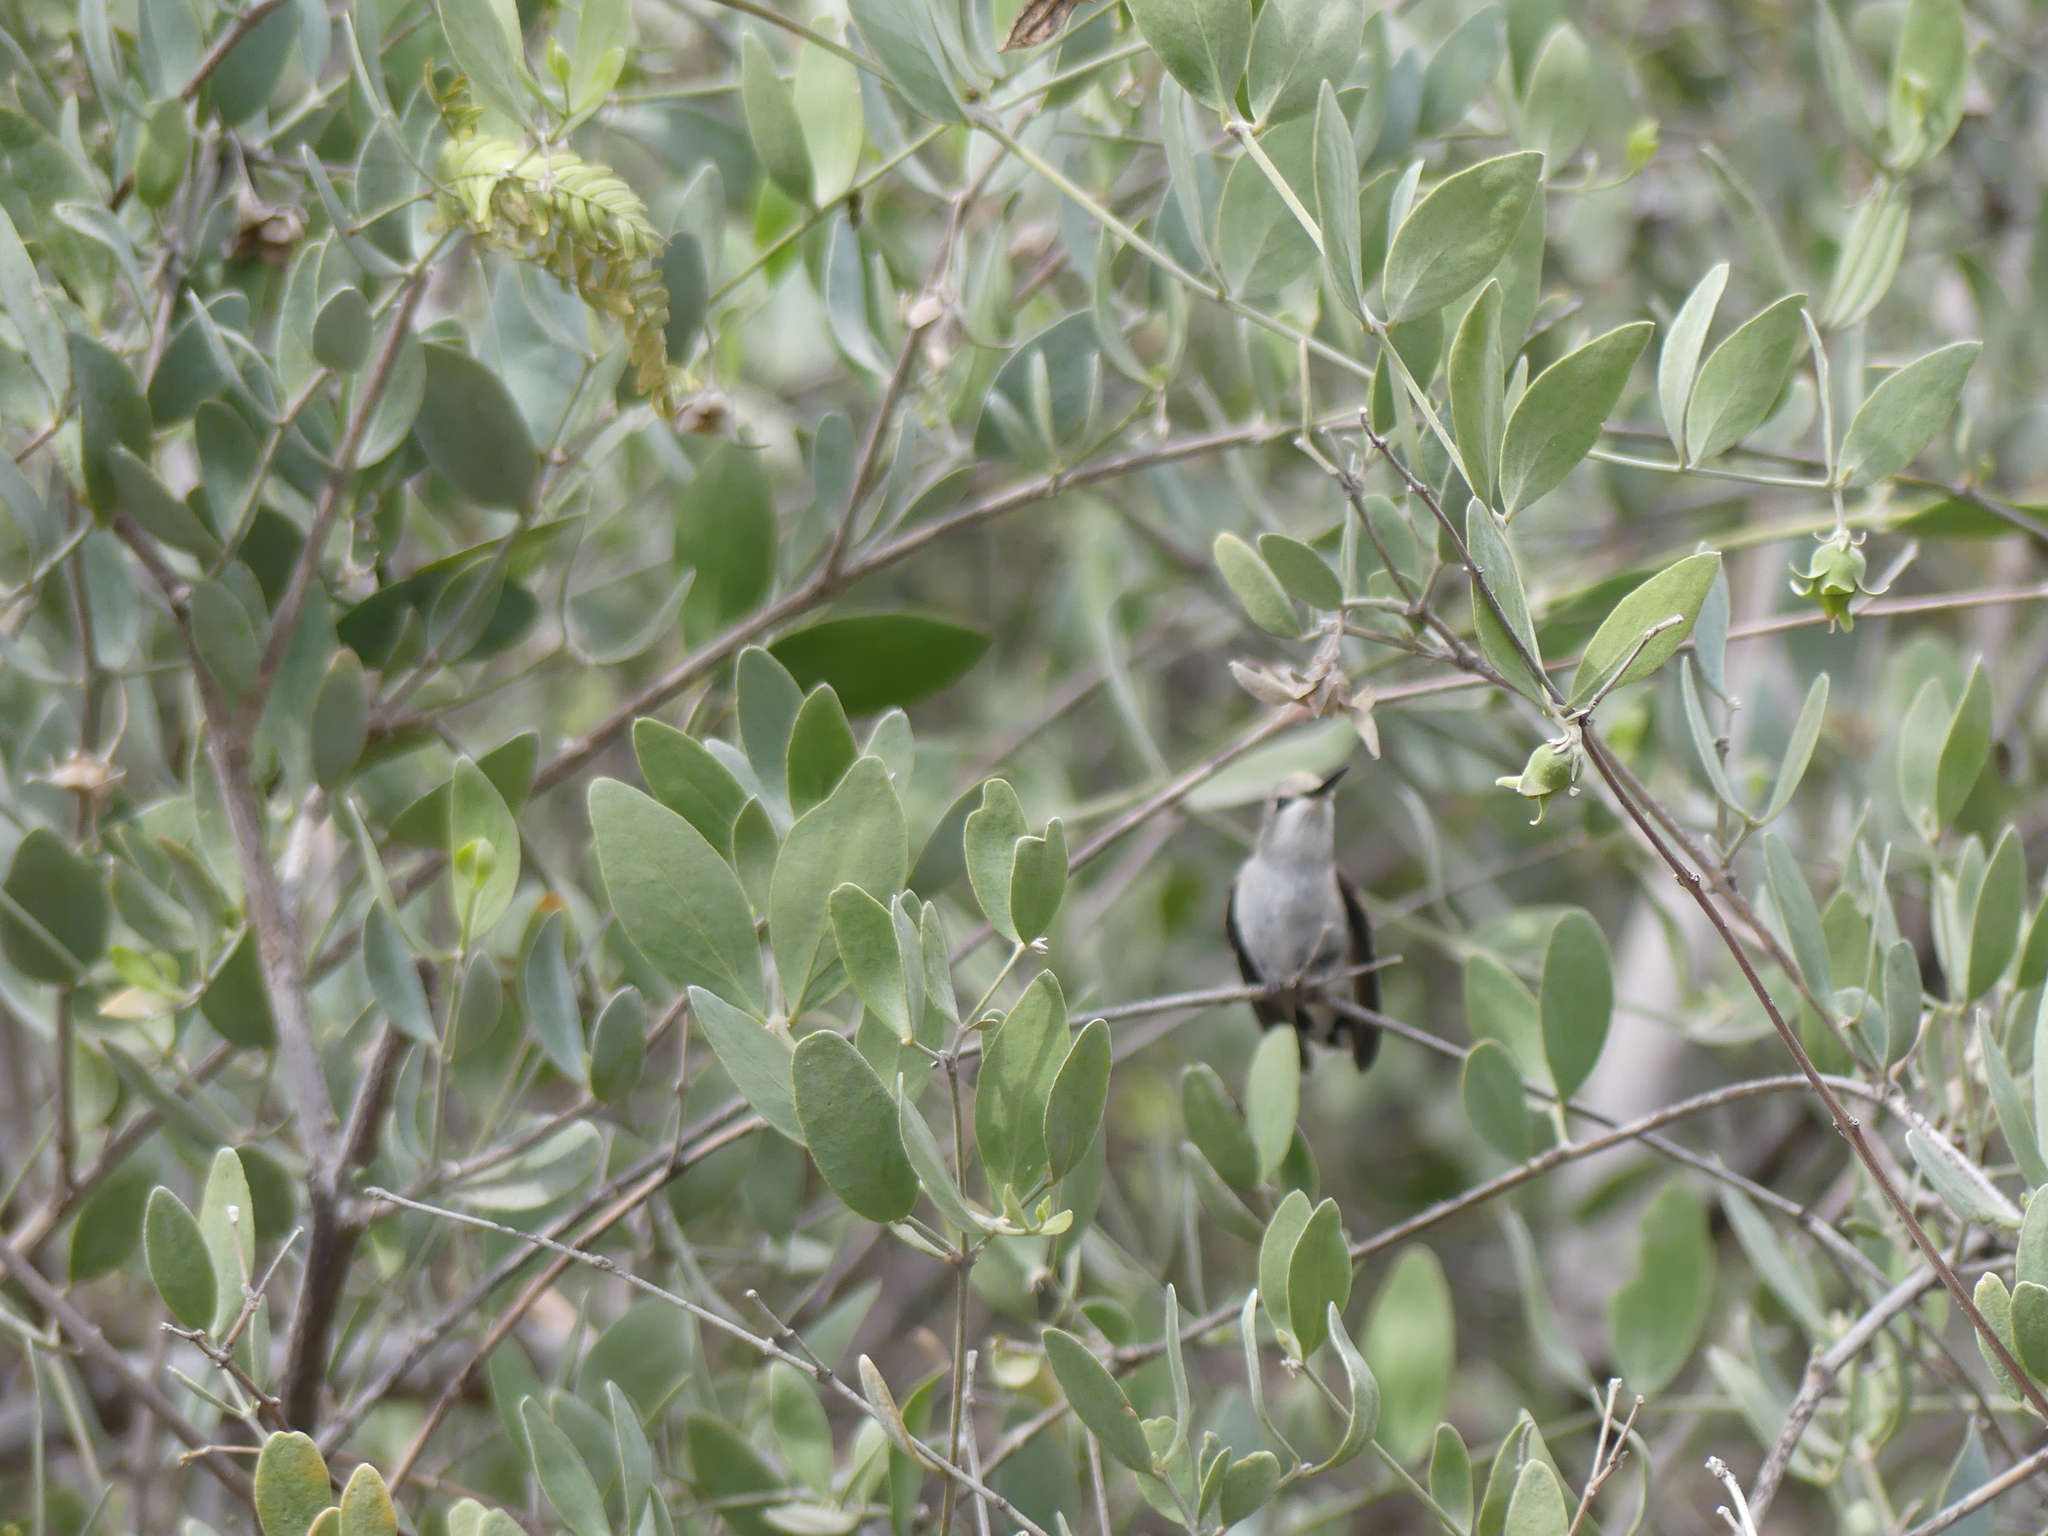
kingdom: Animalia
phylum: Chordata
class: Aves
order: Apodiformes
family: Trochilidae
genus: Calypte
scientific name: Calypte costae
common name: Costa's hummingbird
